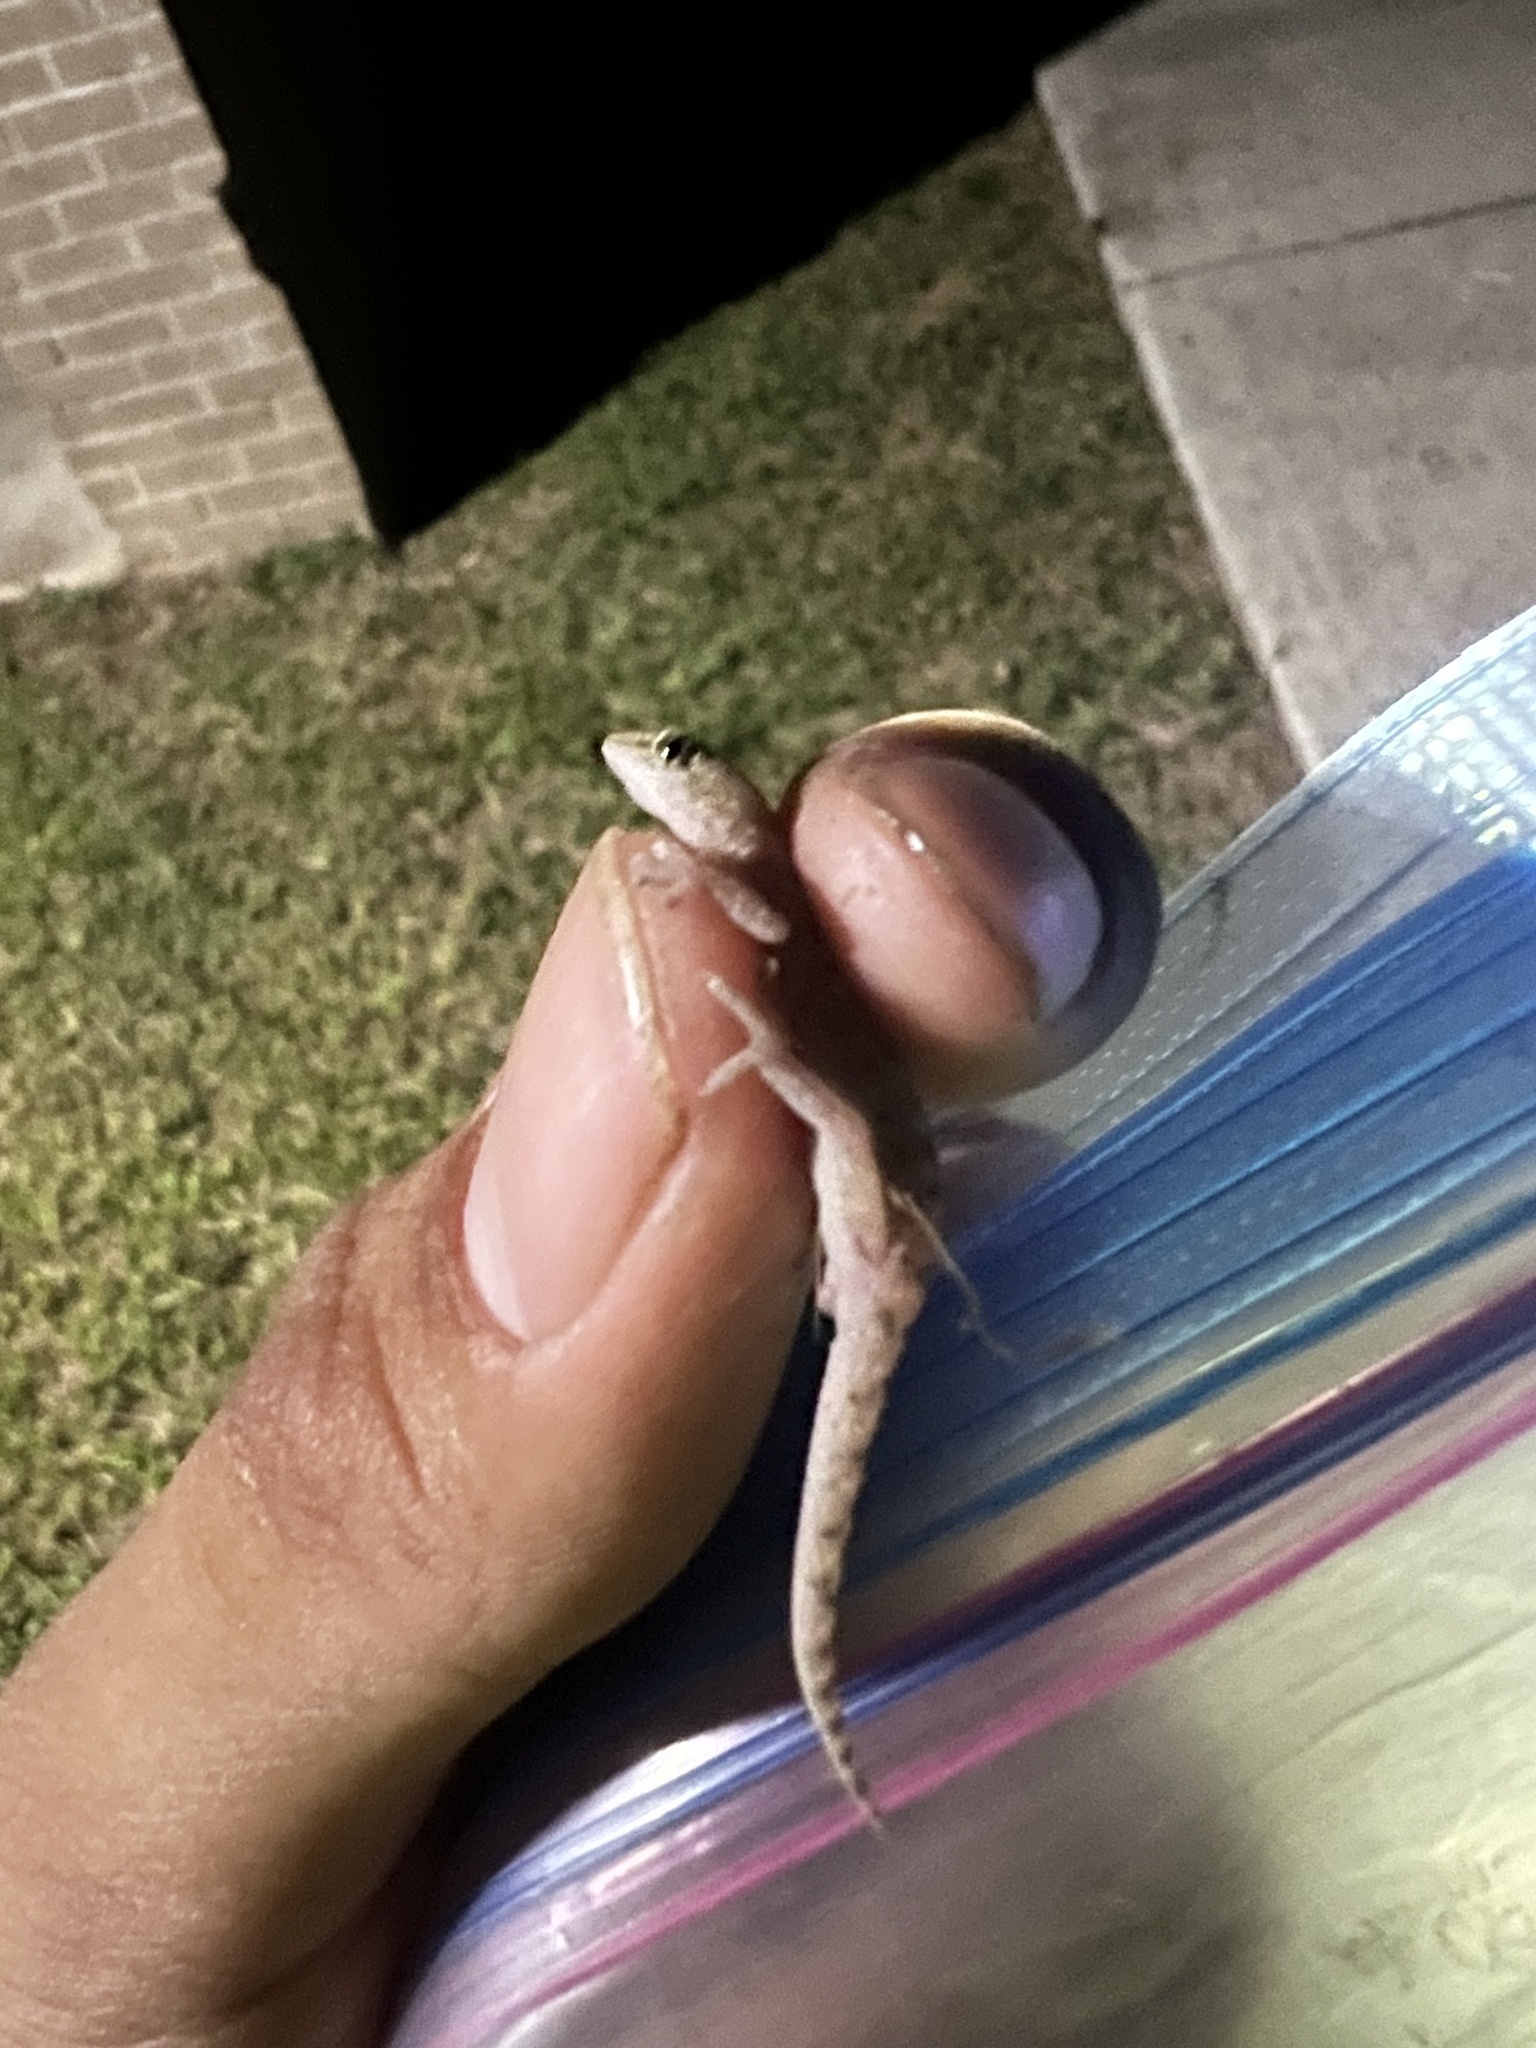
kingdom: Animalia
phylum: Chordata
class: Squamata
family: Gekkonidae
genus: Hemidactylus
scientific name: Hemidactylus parvimaculatus
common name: Spotted house gecko
